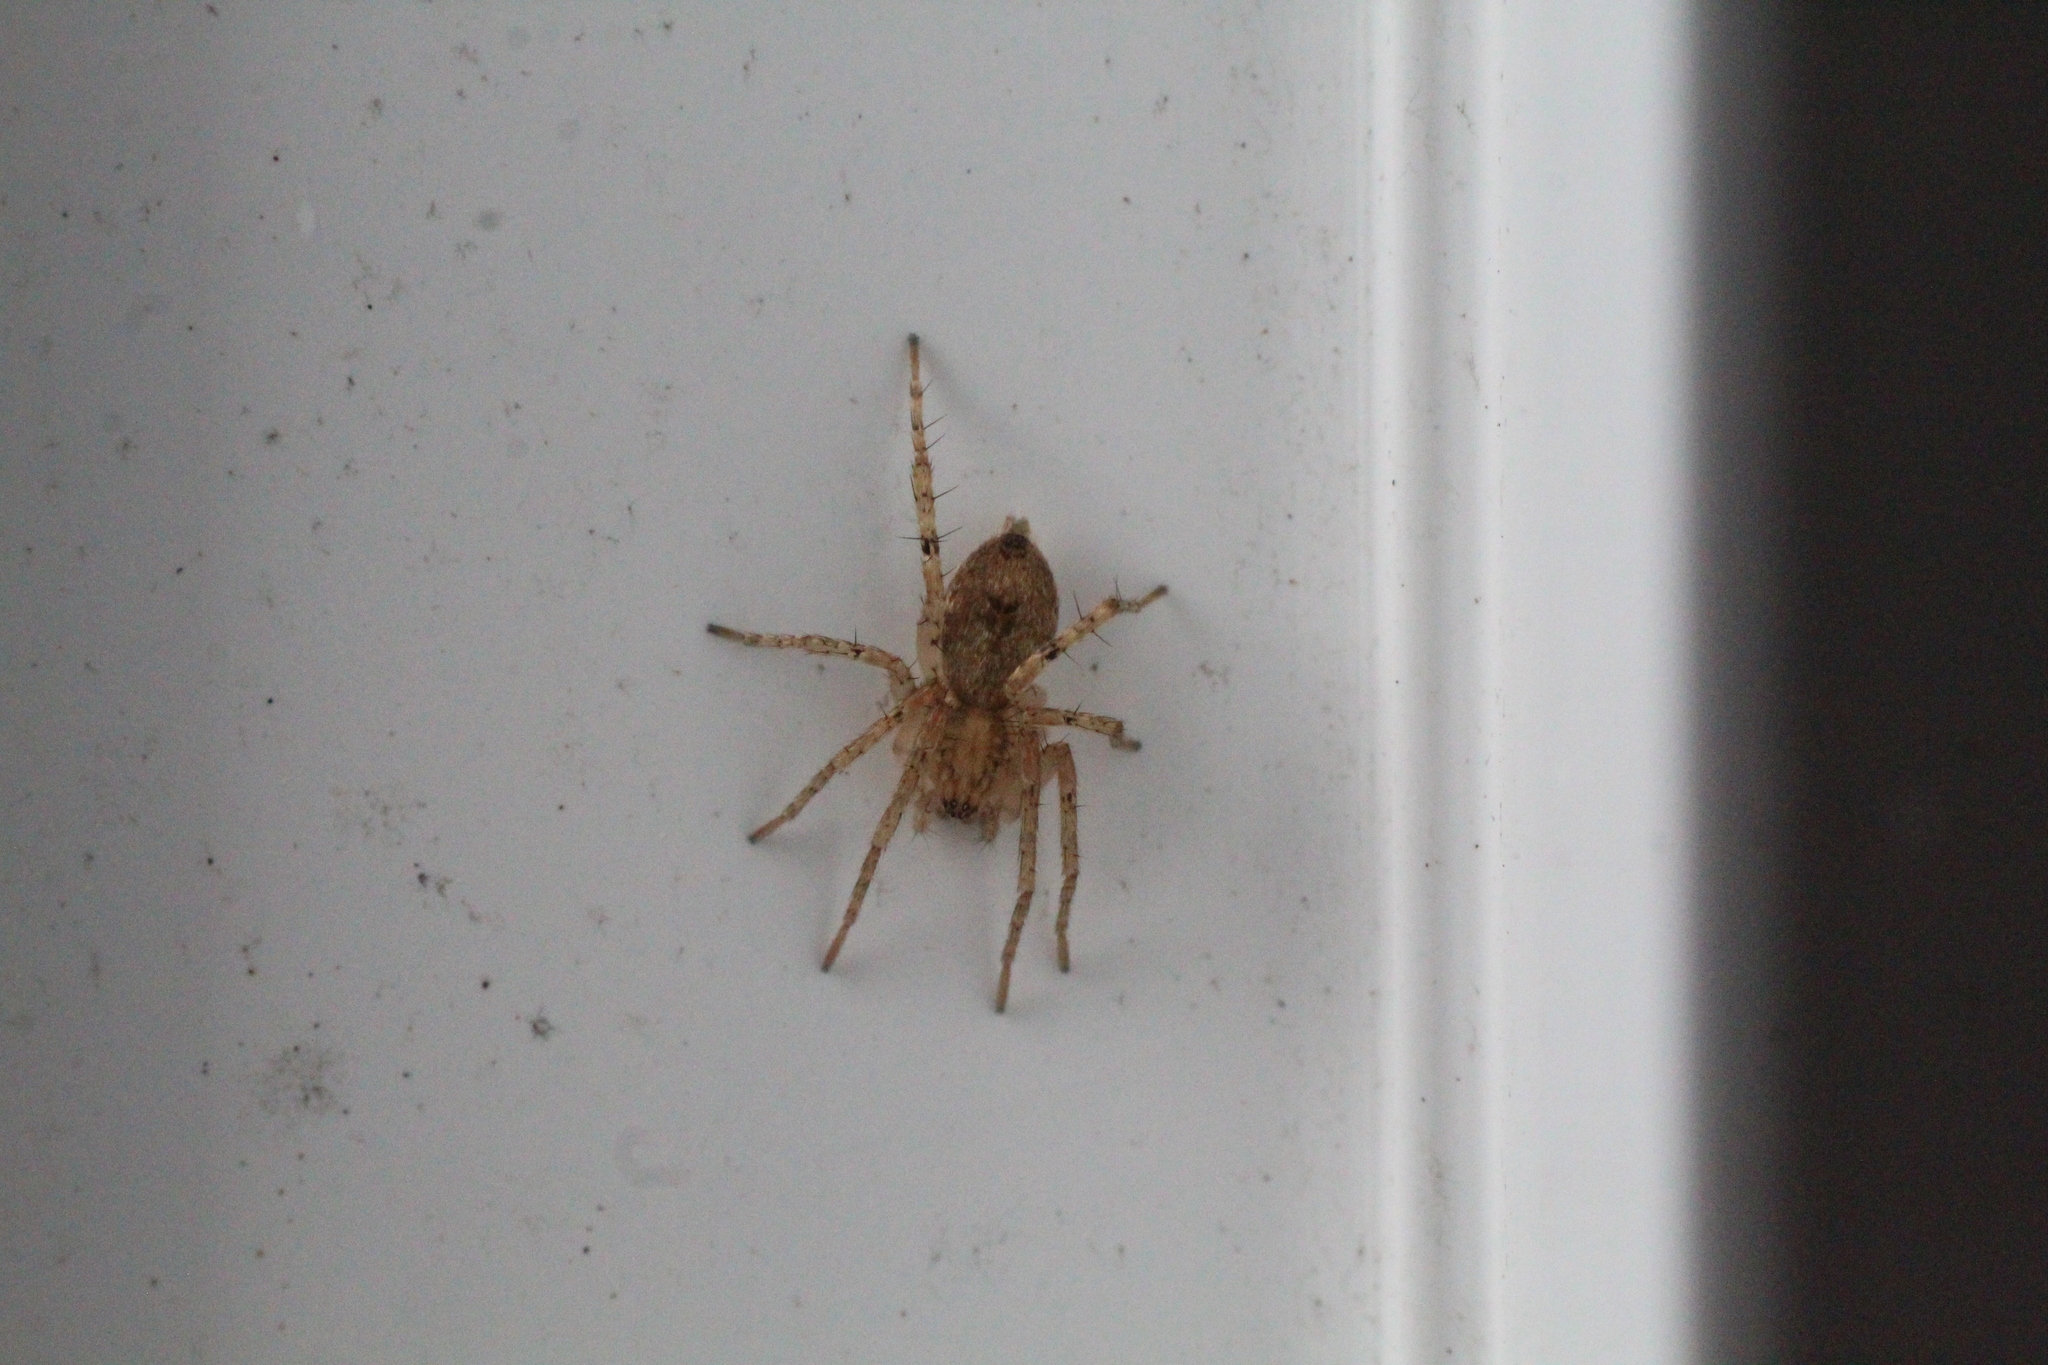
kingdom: Animalia
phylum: Arthropoda
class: Arachnida
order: Araneae
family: Anyphaenidae
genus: Anyphaena
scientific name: Anyphaena accentuata
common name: Buzzing spider
